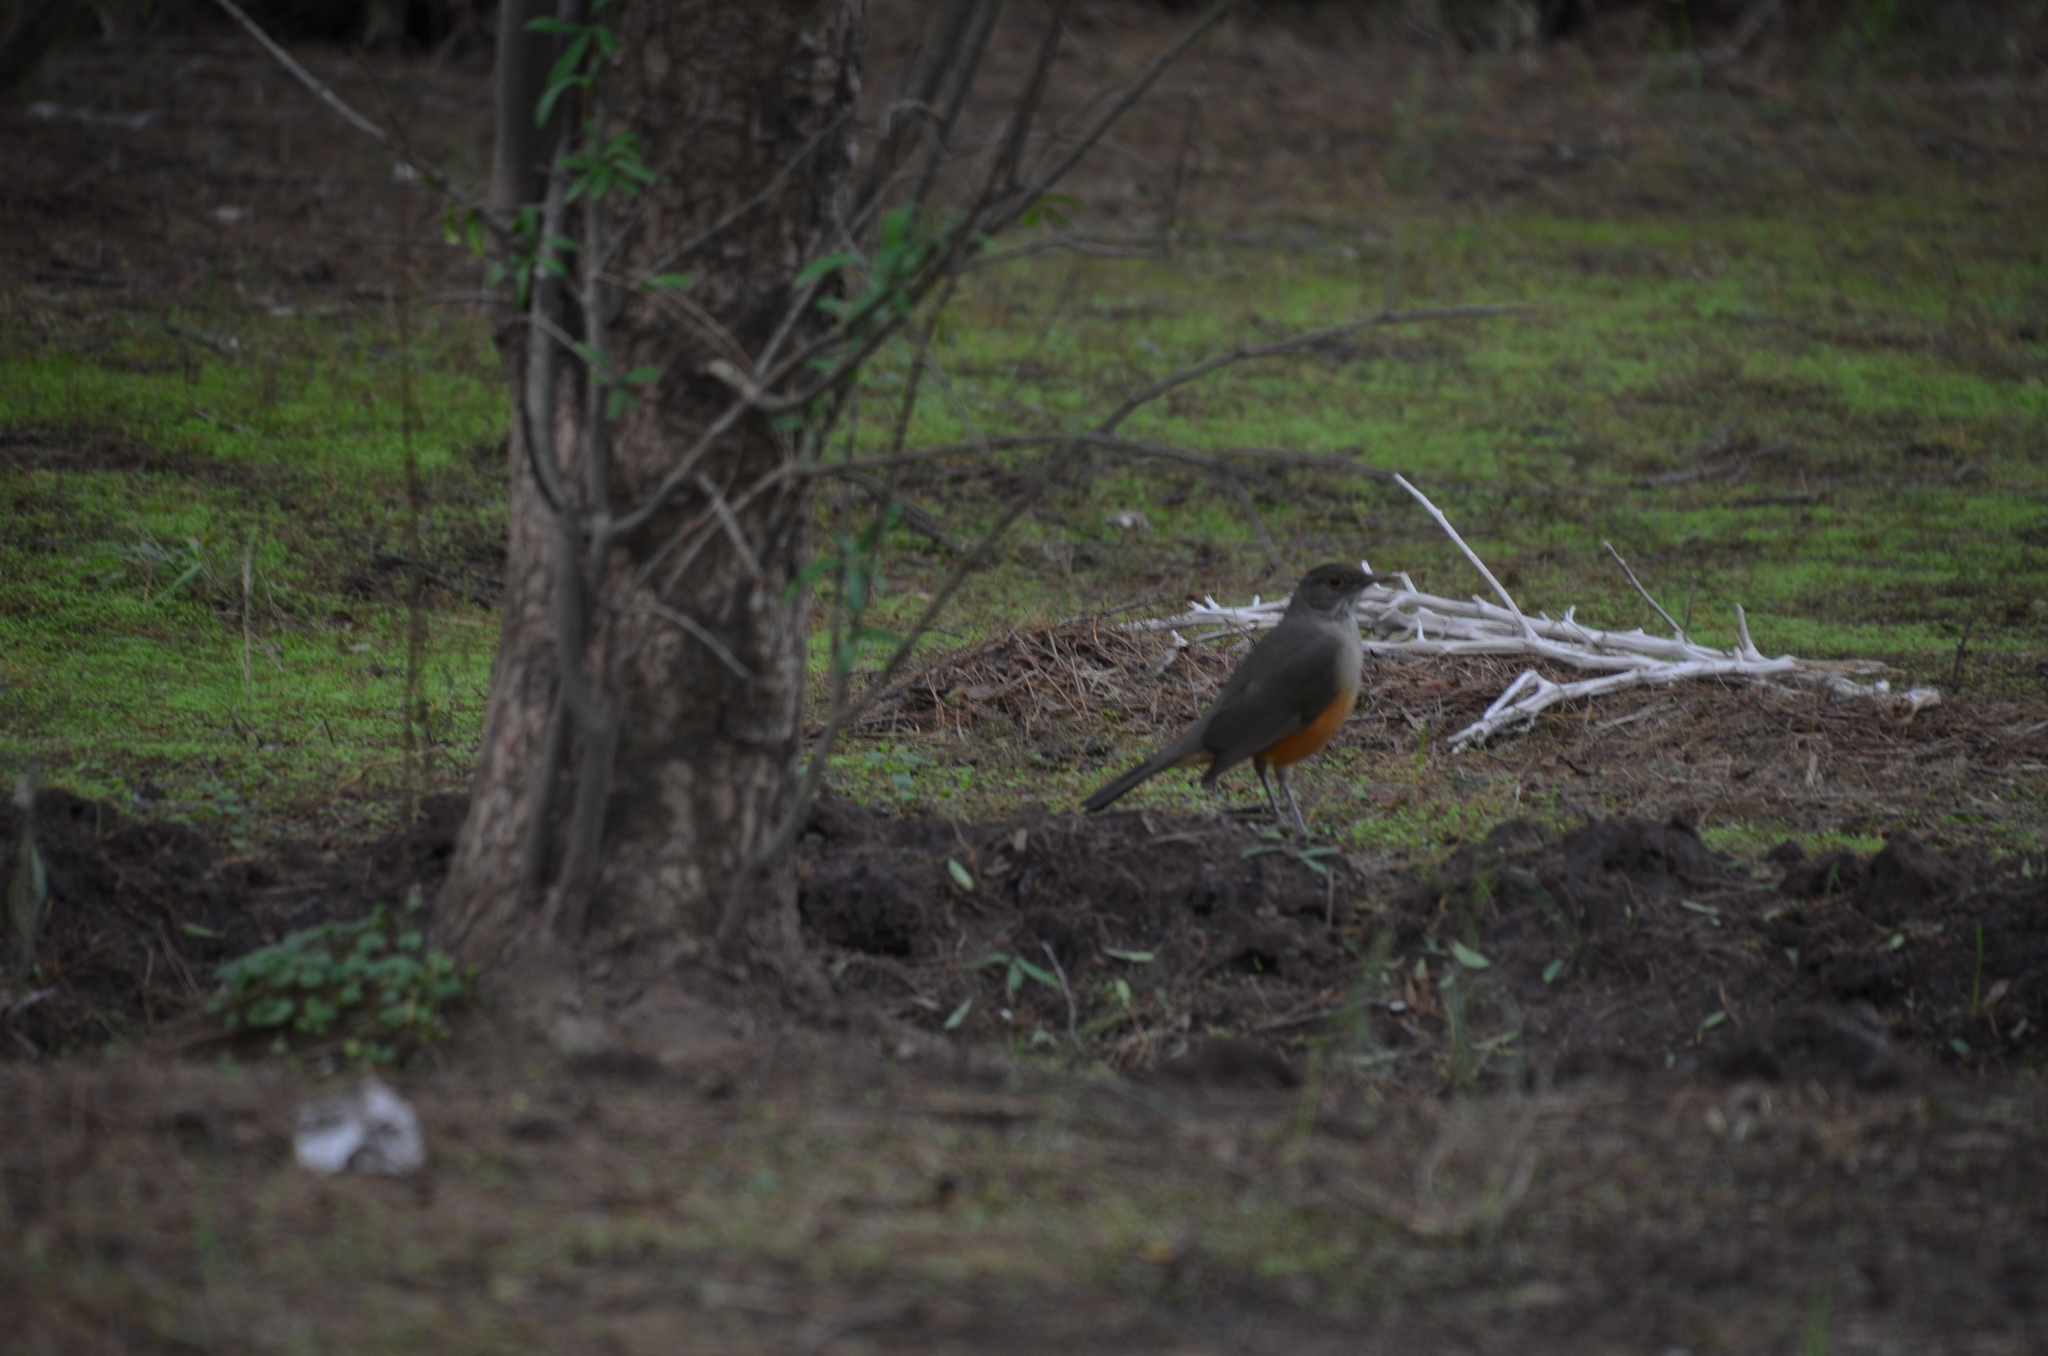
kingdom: Animalia
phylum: Chordata
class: Aves
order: Passeriformes
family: Turdidae
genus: Turdus
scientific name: Turdus rufiventris
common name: Rufous-bellied thrush
